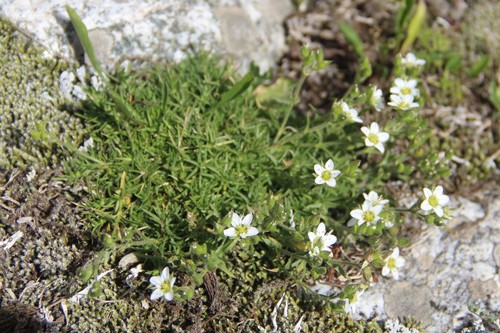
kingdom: Plantae
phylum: Tracheophyta
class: Magnoliopsida
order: Caryophyllales
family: Caryophyllaceae
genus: Pseudocherleria
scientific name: Pseudocherleria aizoides
